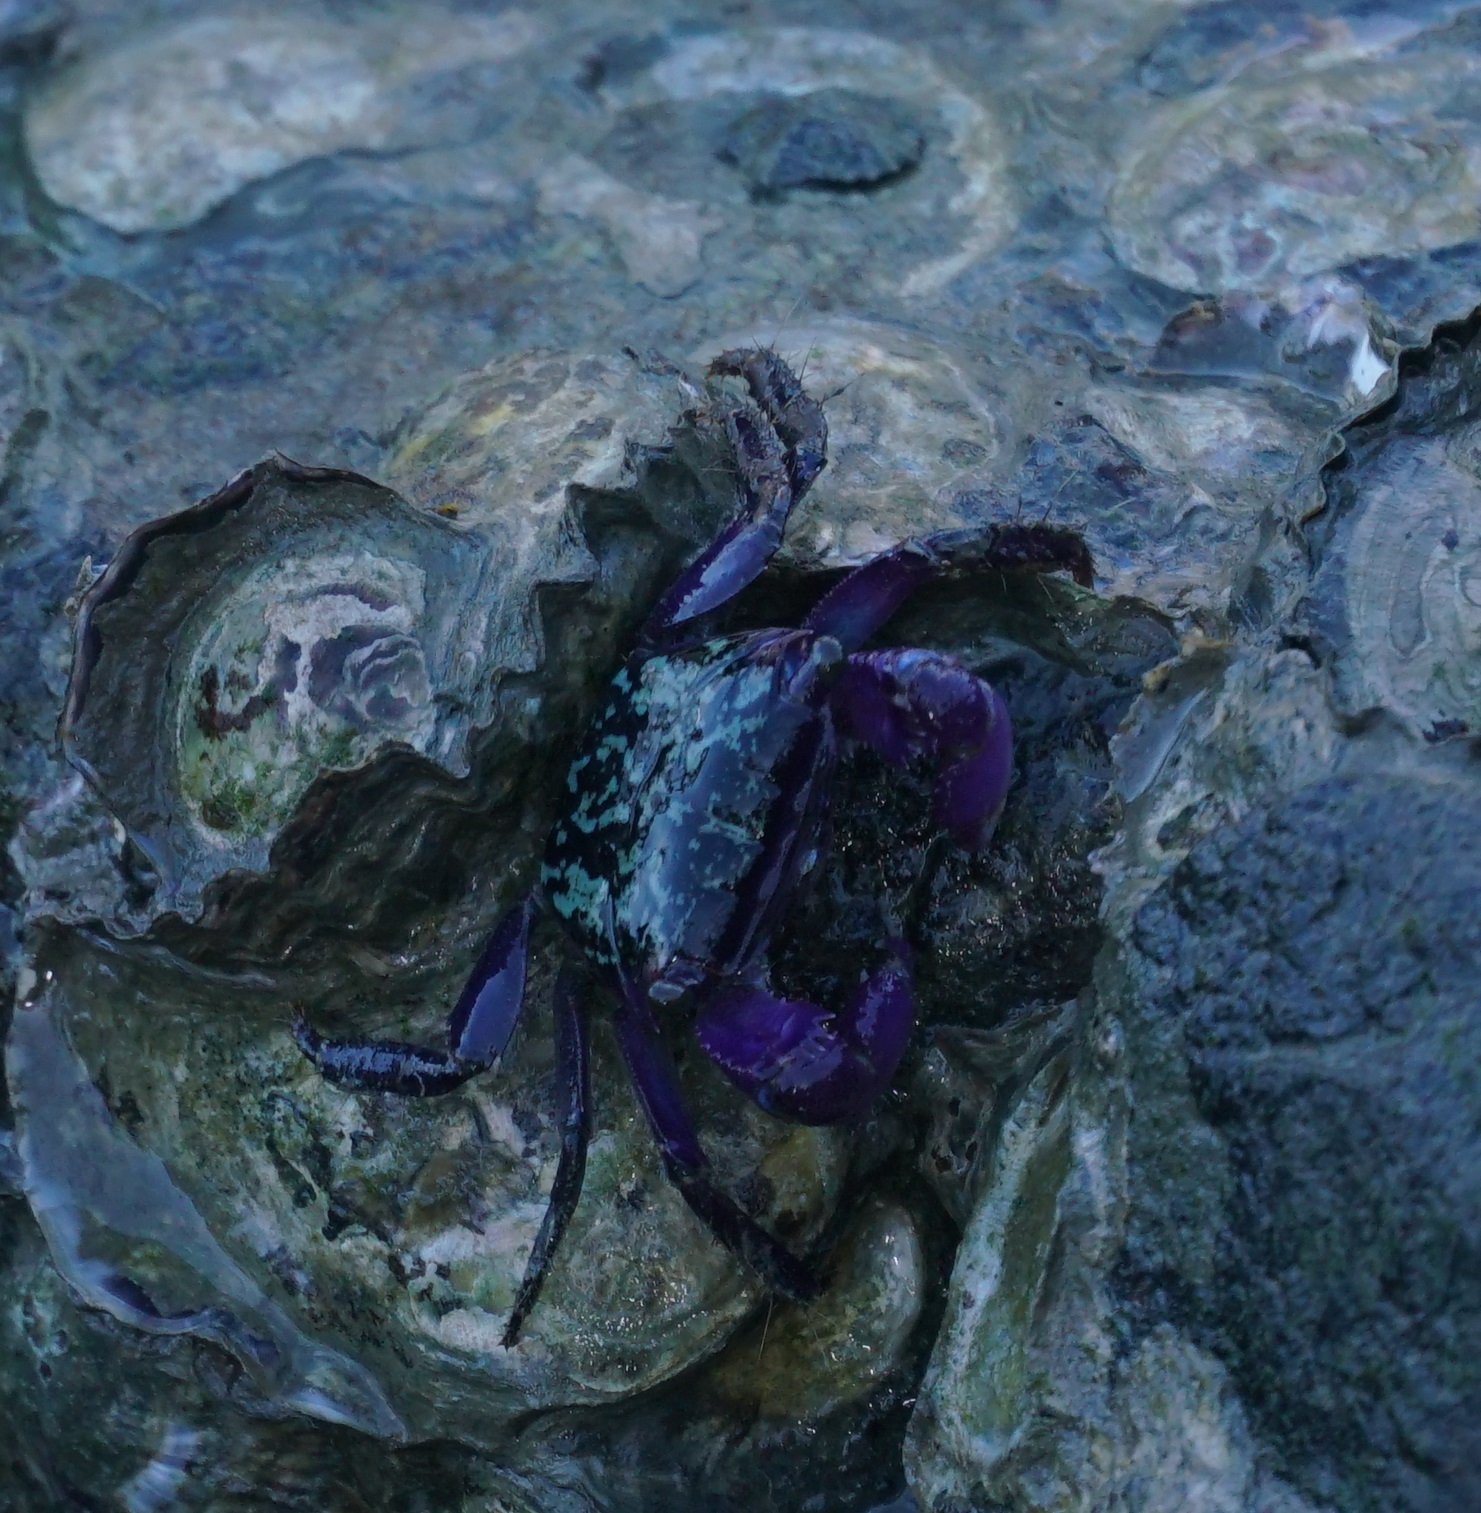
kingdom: Animalia
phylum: Arthropoda
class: Malacostraca
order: Decapoda
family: Grapsidae
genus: Metopograpsus
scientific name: Metopograpsus frontalis
